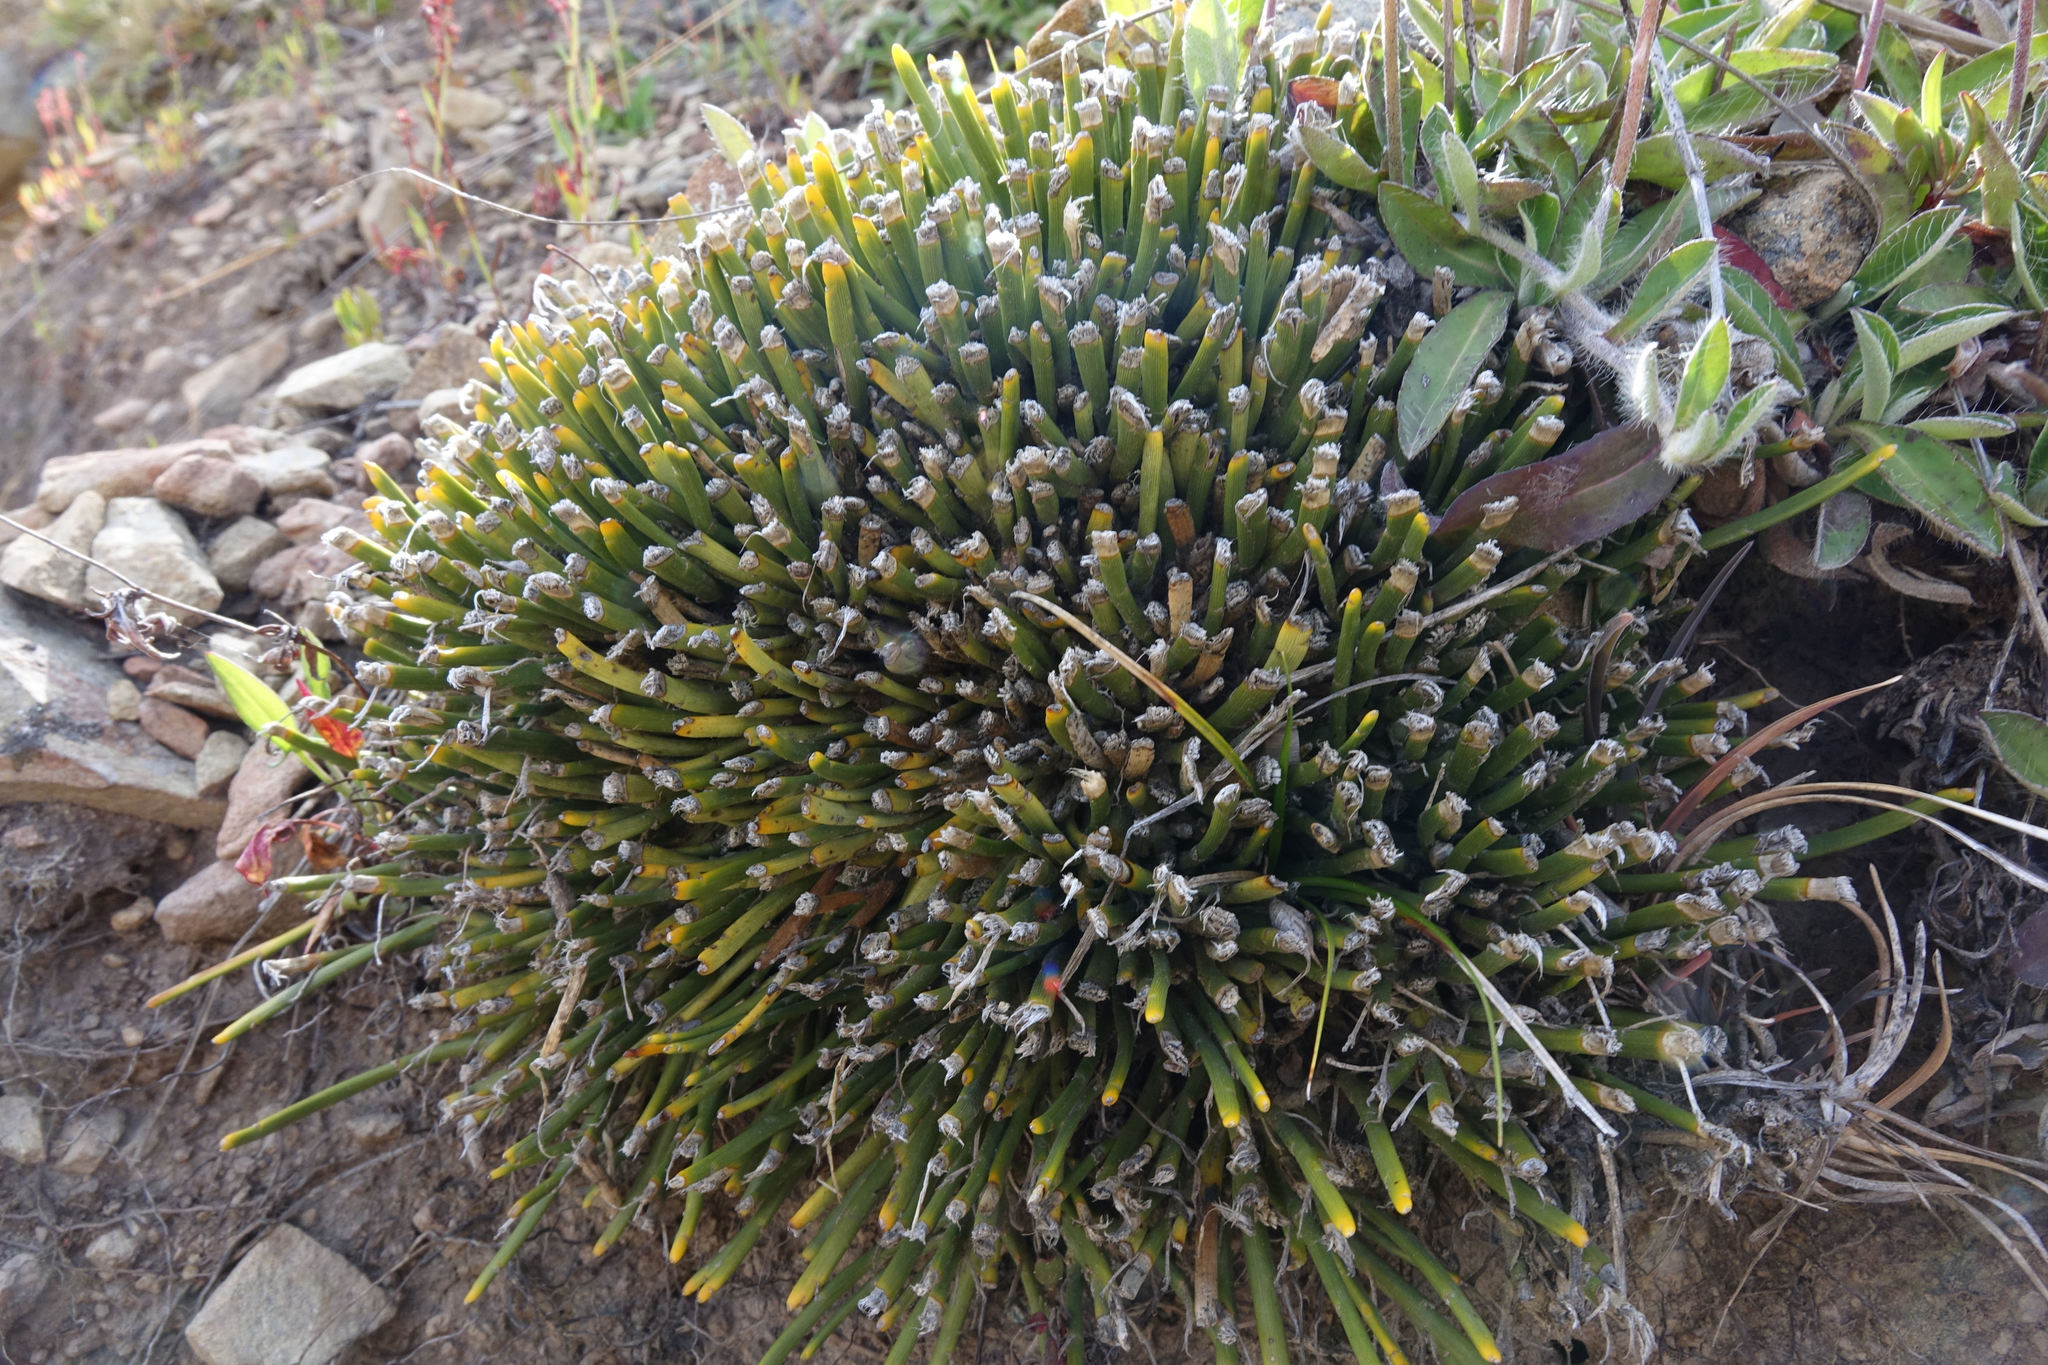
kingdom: Plantae
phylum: Tracheophyta
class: Magnoliopsida
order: Fabales
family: Fabaceae
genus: Carmichaelia
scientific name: Carmichaelia vexillata
